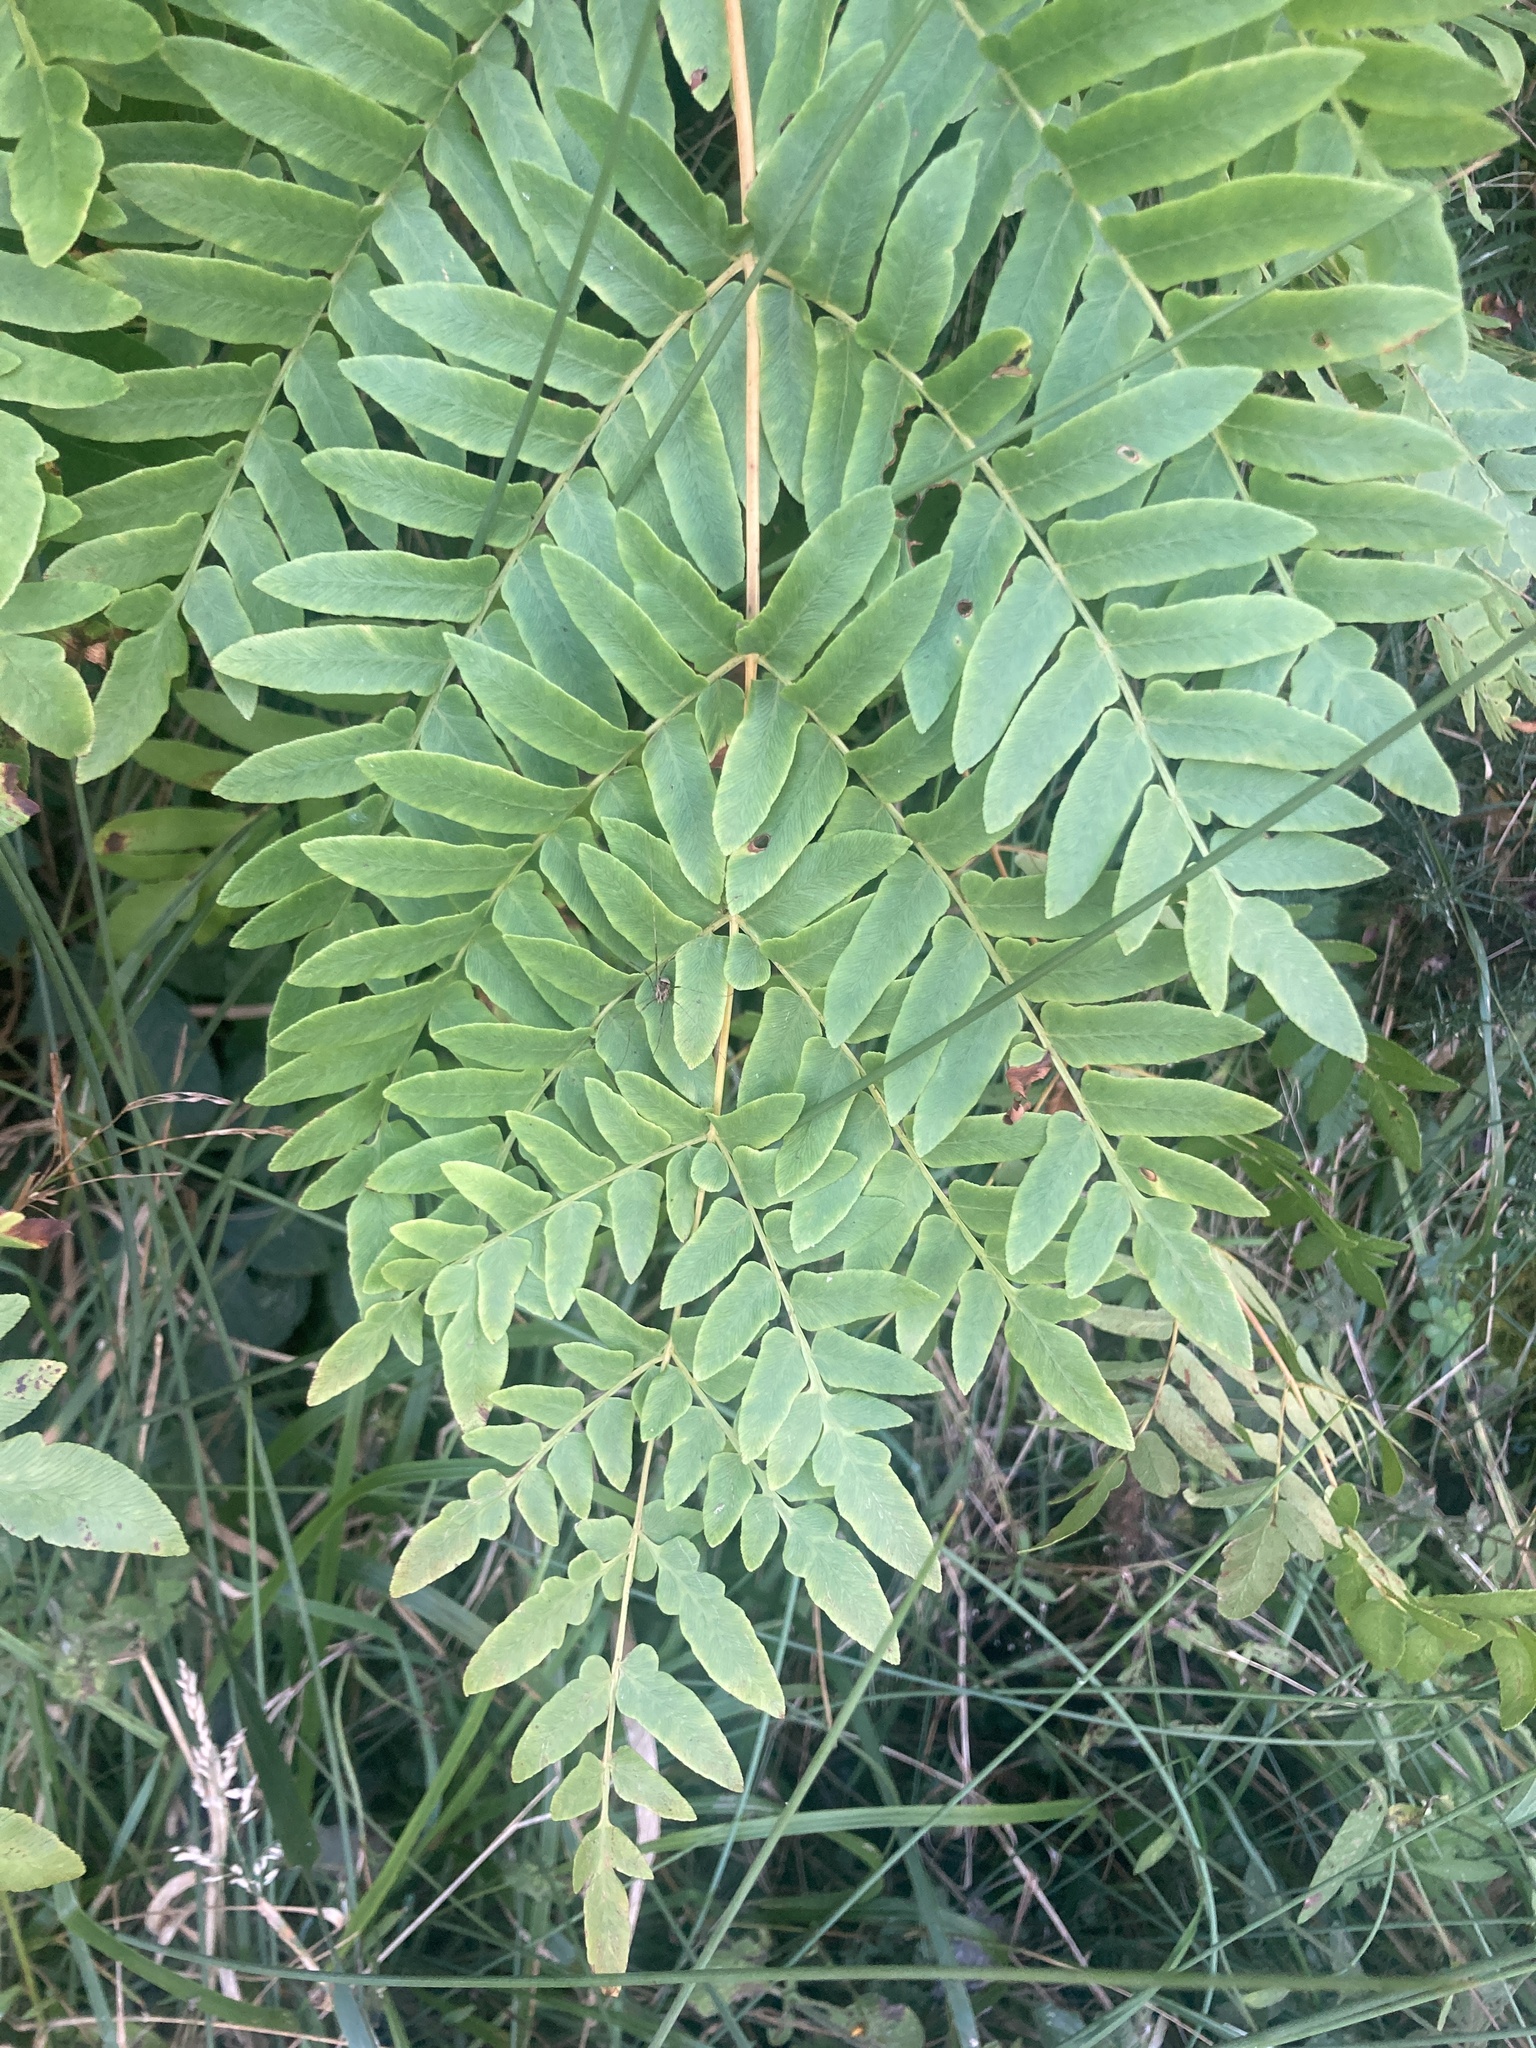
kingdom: Plantae
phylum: Tracheophyta
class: Polypodiopsida
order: Osmundales
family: Osmundaceae
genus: Osmunda
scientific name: Osmunda regalis
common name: Royal fern
